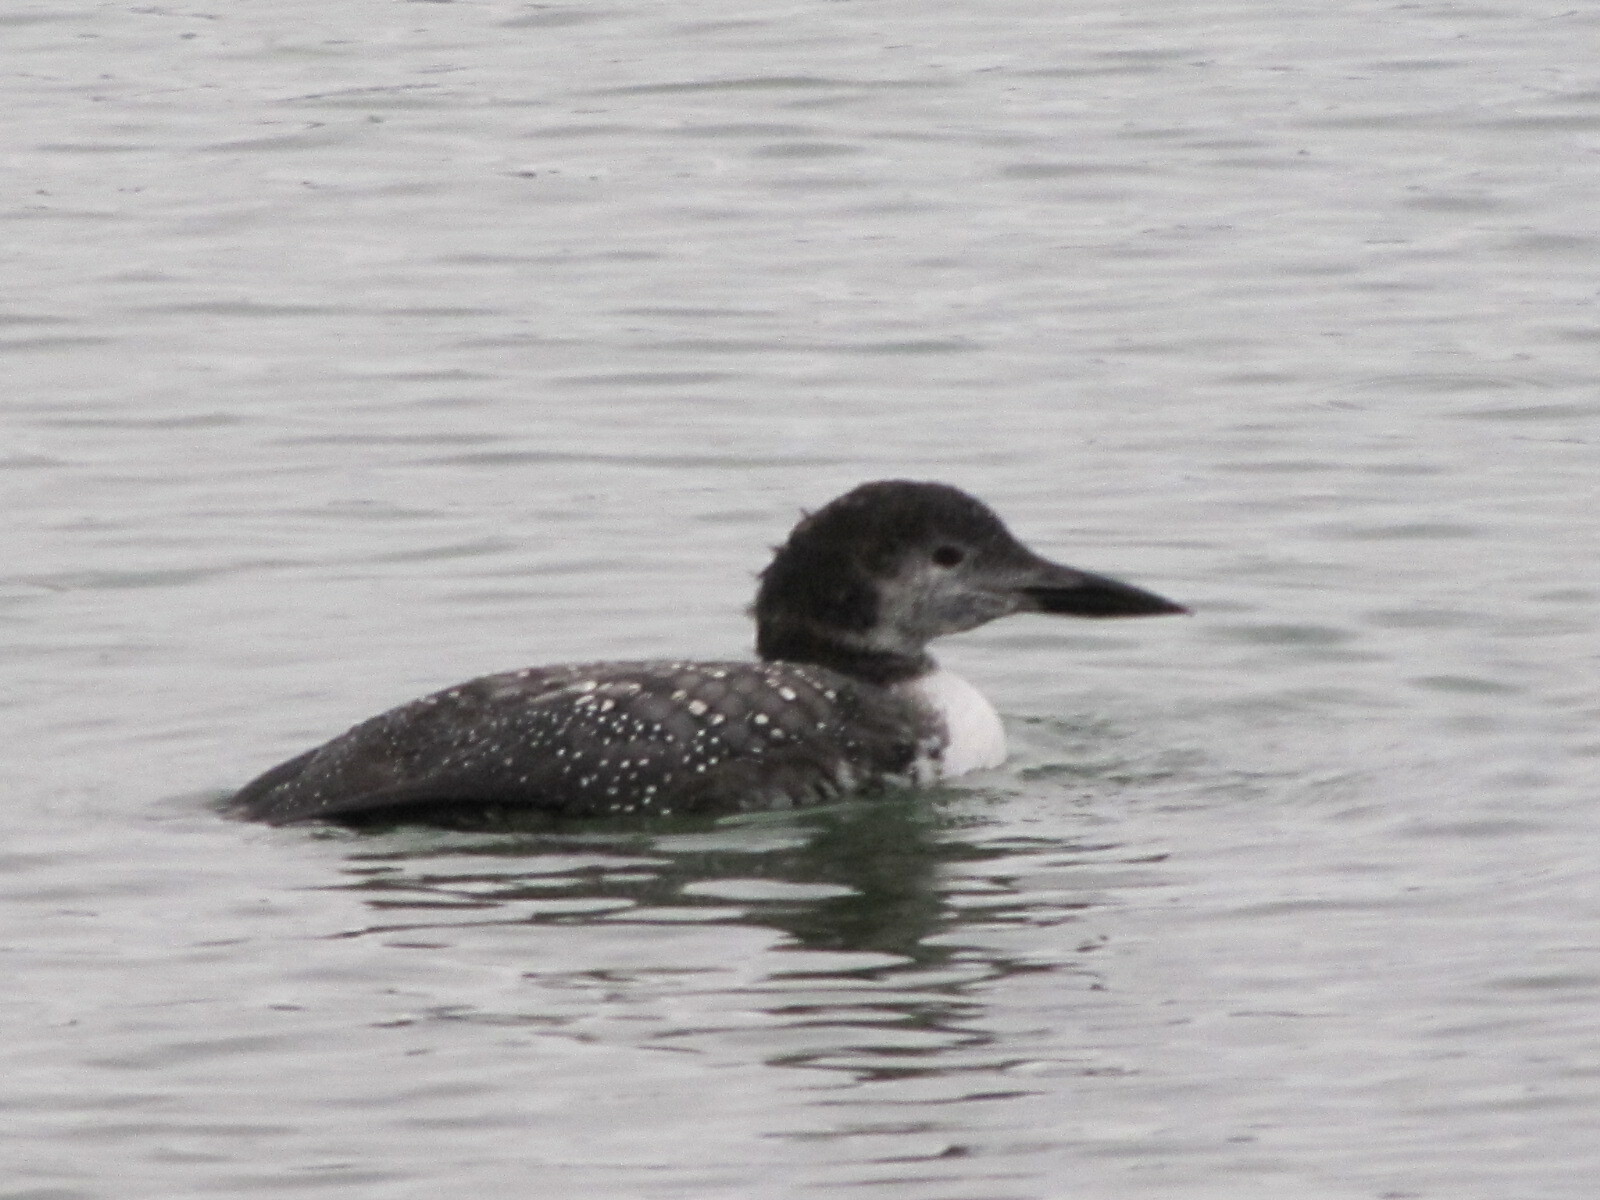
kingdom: Animalia
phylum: Chordata
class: Aves
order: Gaviiformes
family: Gaviidae
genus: Gavia
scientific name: Gavia immer
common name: Common loon
